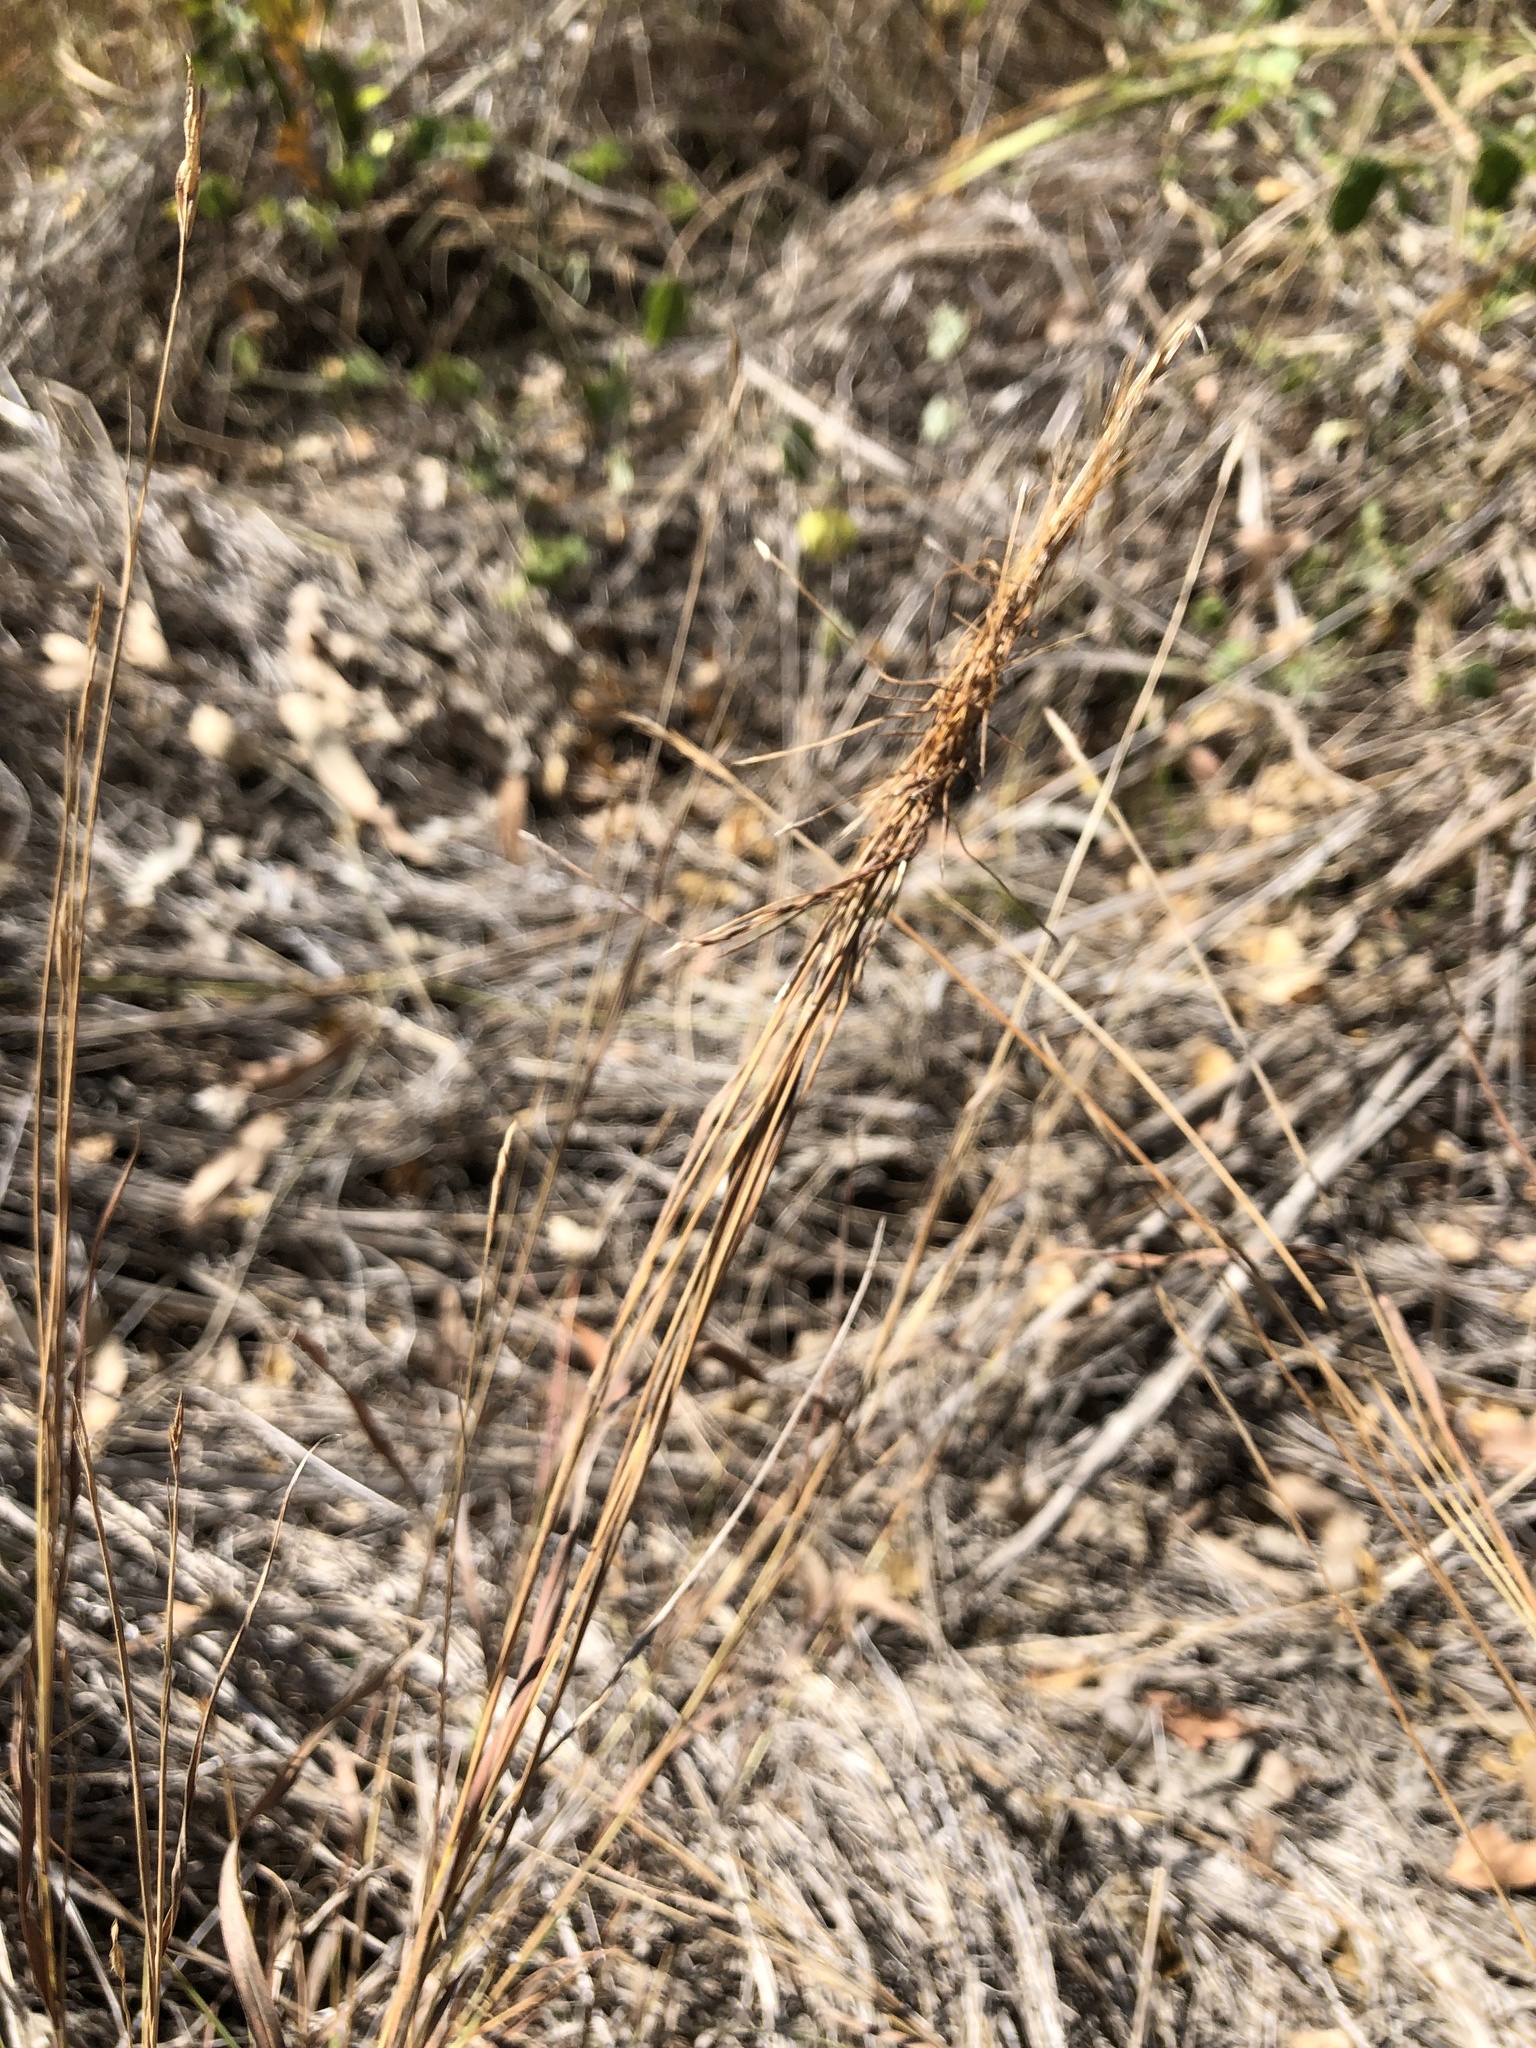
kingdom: Plantae
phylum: Tracheophyta
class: Liliopsida
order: Poales
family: Poaceae
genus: Heteropogon
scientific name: Heteropogon contortus
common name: Tanglehead
